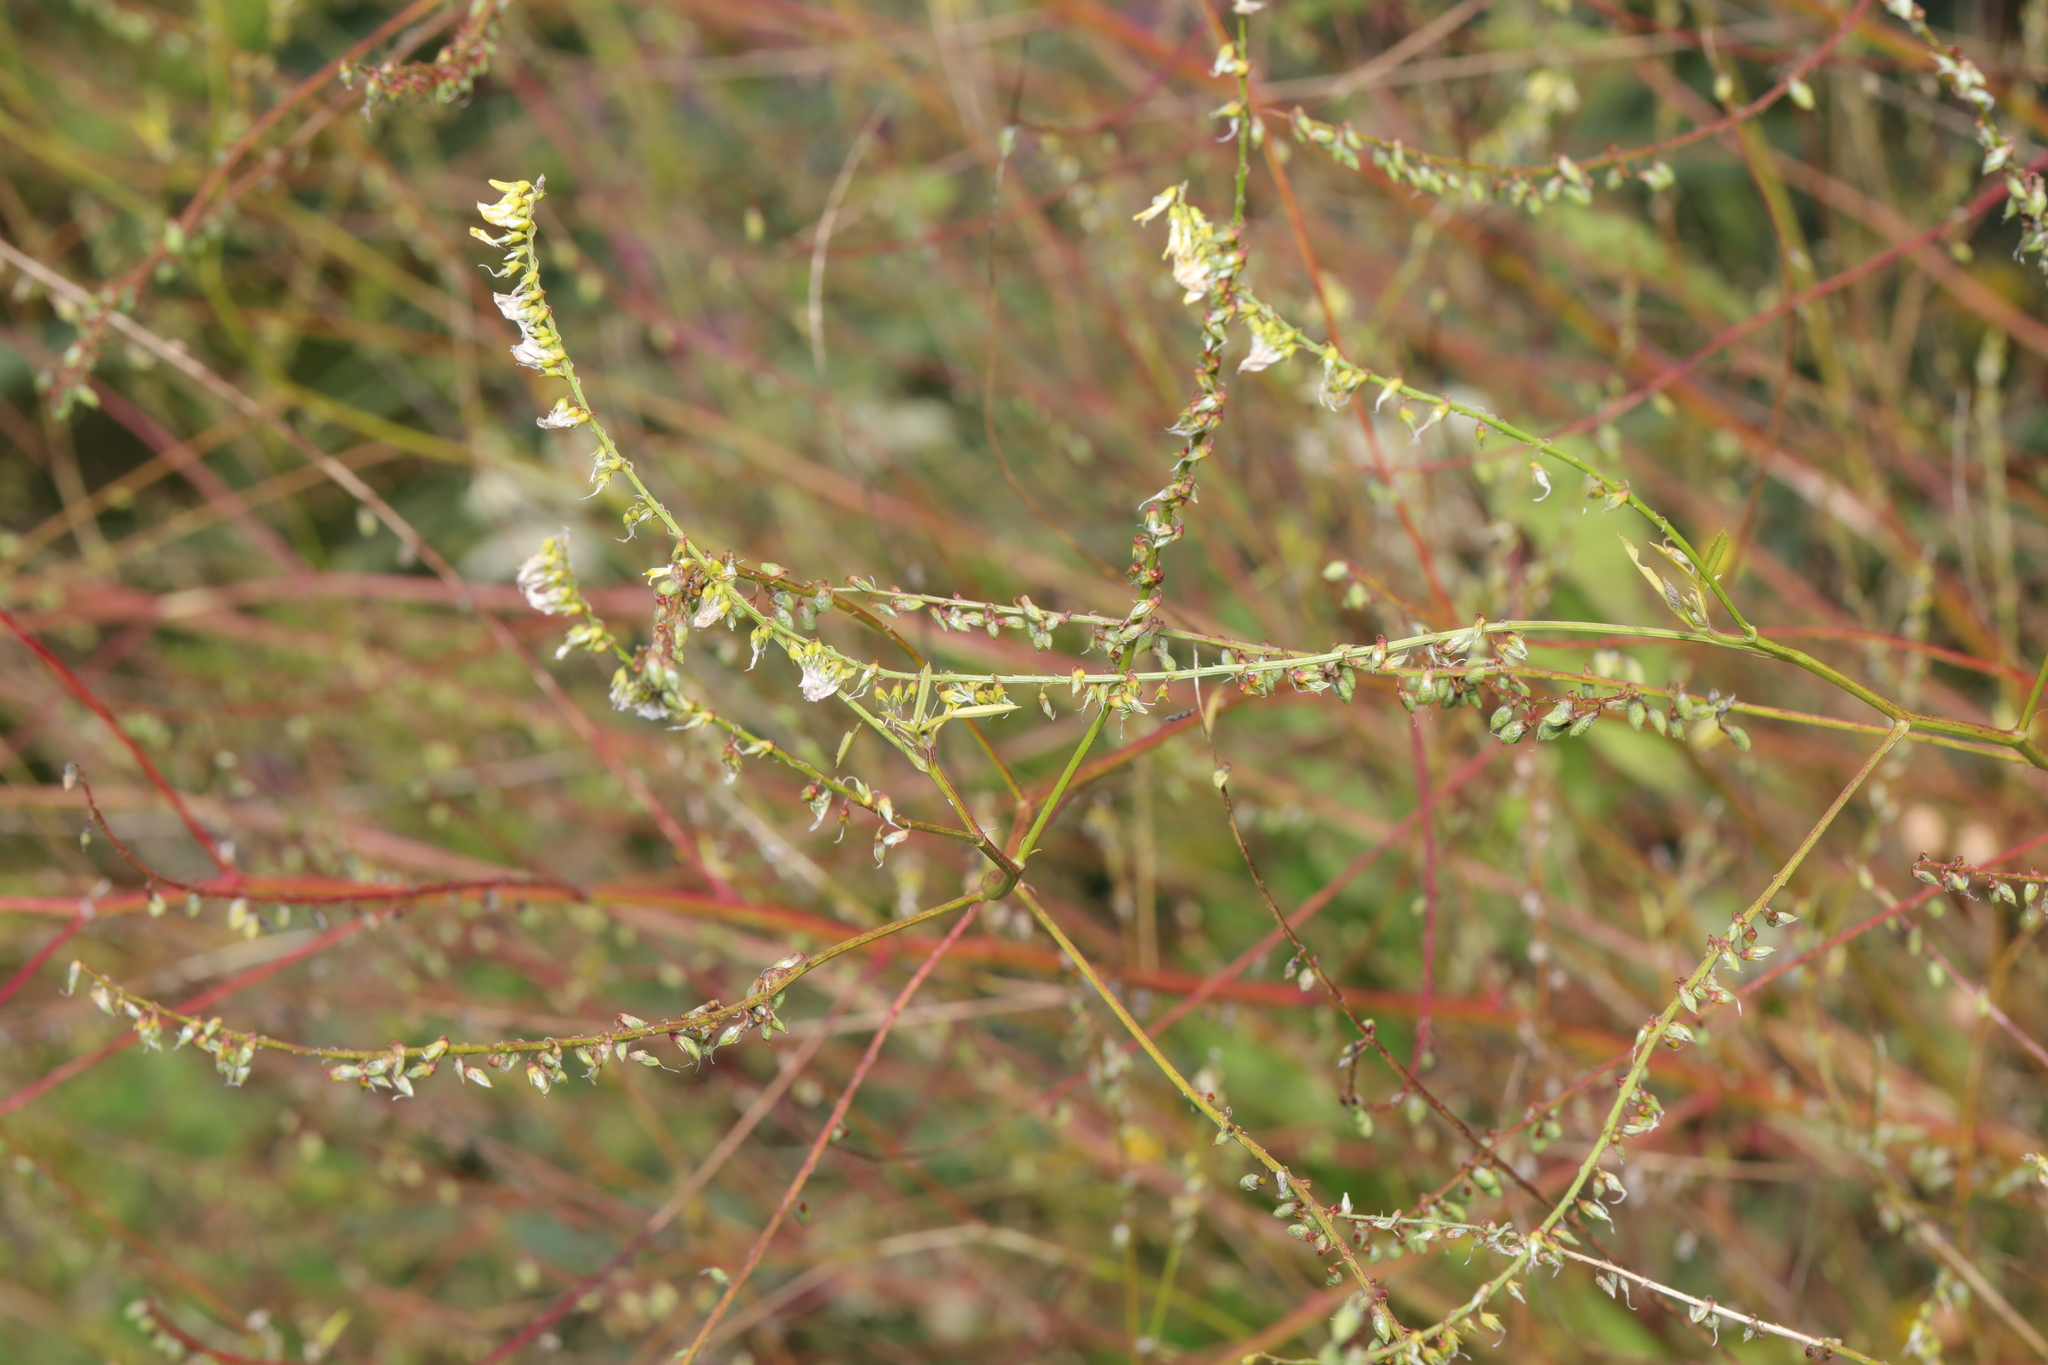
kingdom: Plantae
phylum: Tracheophyta
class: Magnoliopsida
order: Fabales
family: Fabaceae
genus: Melilotus
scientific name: Melilotus albus
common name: White melilot
